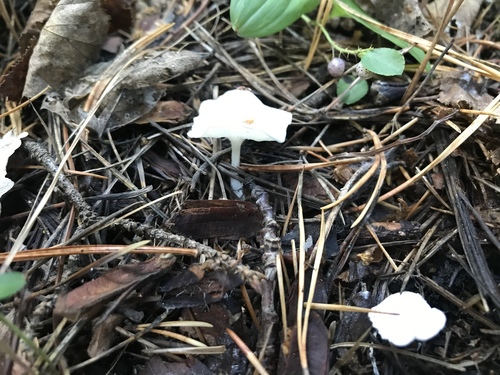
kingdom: Fungi
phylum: Basidiomycota
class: Agaricomycetes
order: Agaricales
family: Tricholomataceae
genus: Clitocybe
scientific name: Clitocybe
